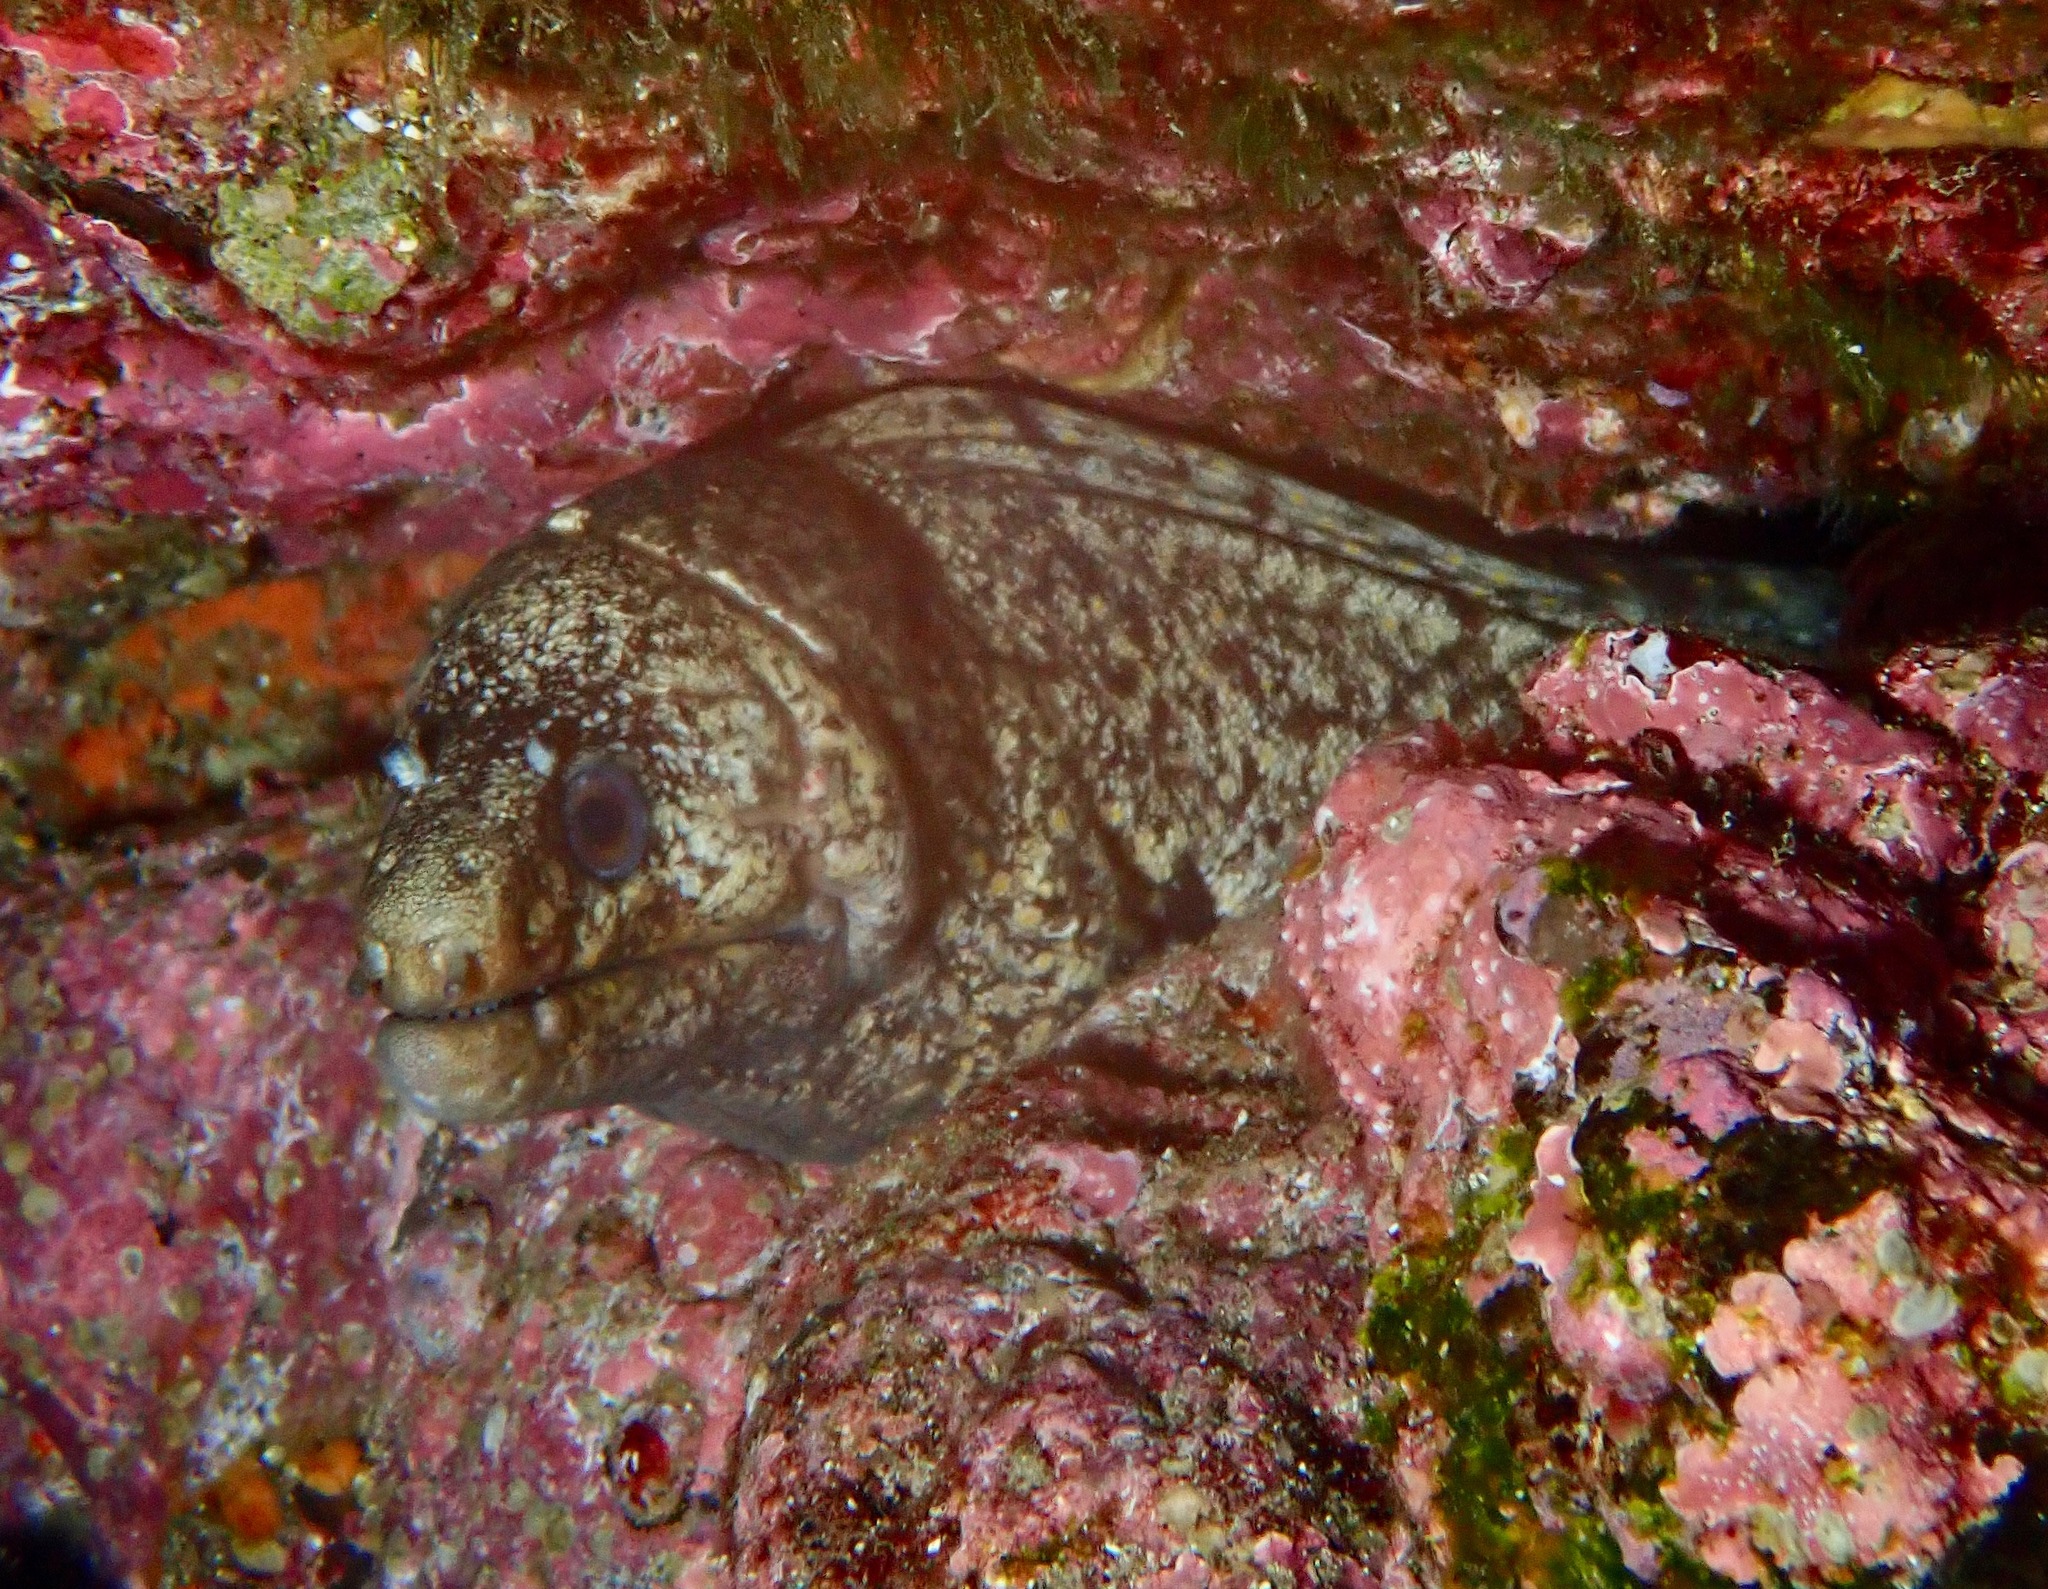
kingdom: Animalia
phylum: Chordata
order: Anguilliformes
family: Muraenidae
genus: Muraena
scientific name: Muraena lentiginosa
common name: Jewel moray
